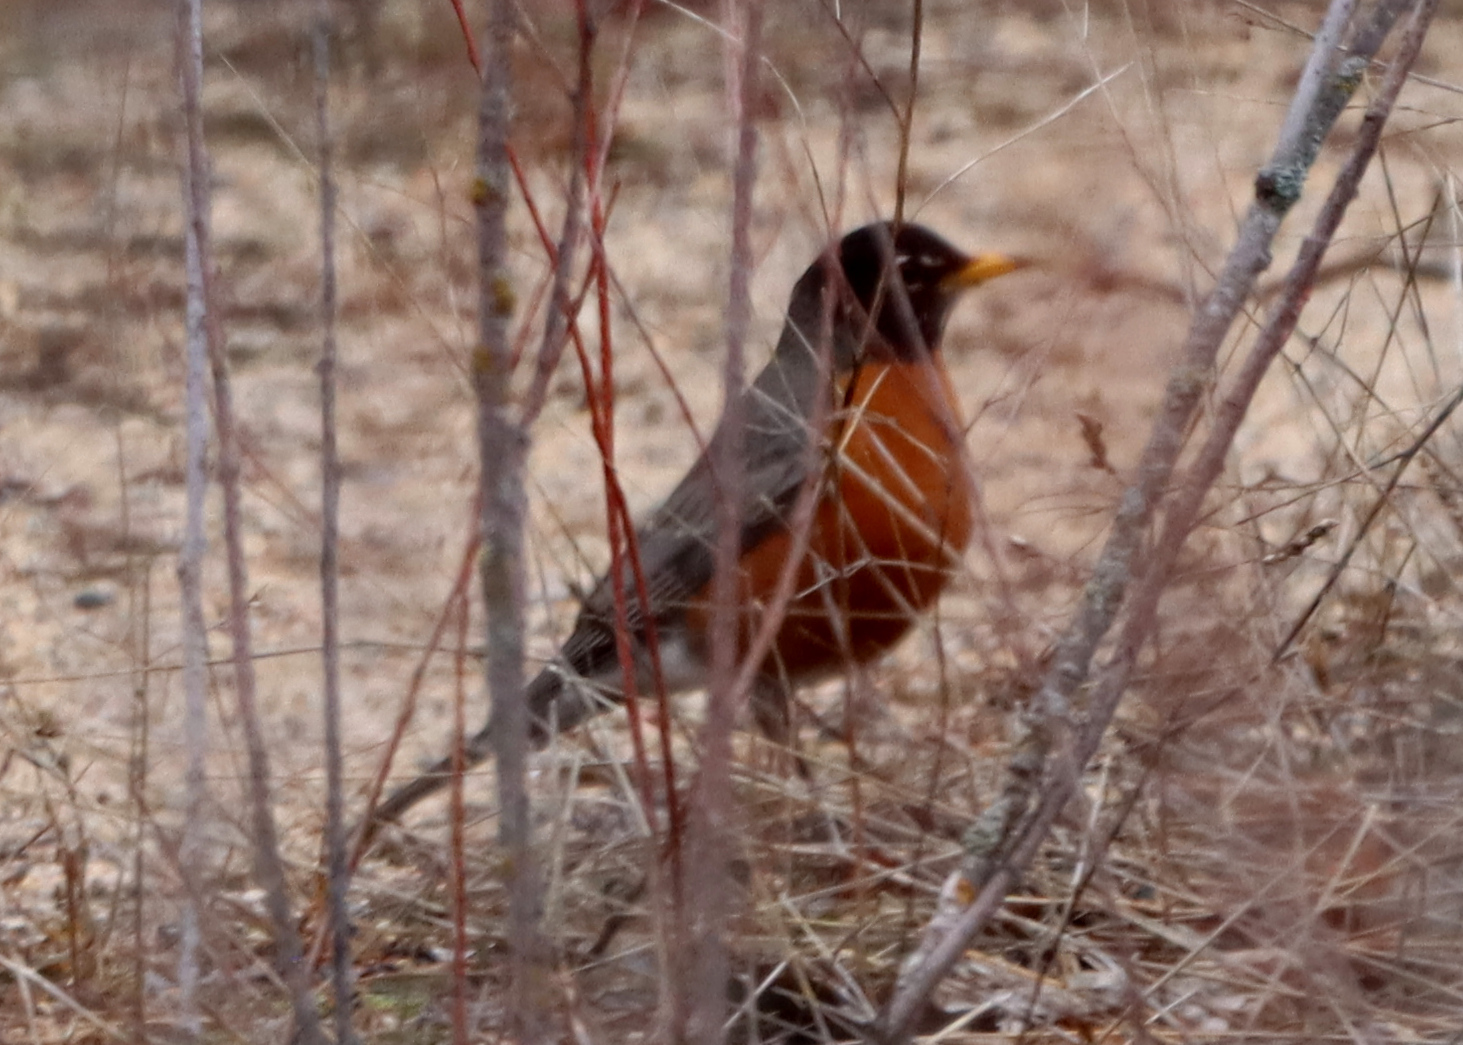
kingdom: Animalia
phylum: Chordata
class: Aves
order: Passeriformes
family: Turdidae
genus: Turdus
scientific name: Turdus migratorius
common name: American robin
